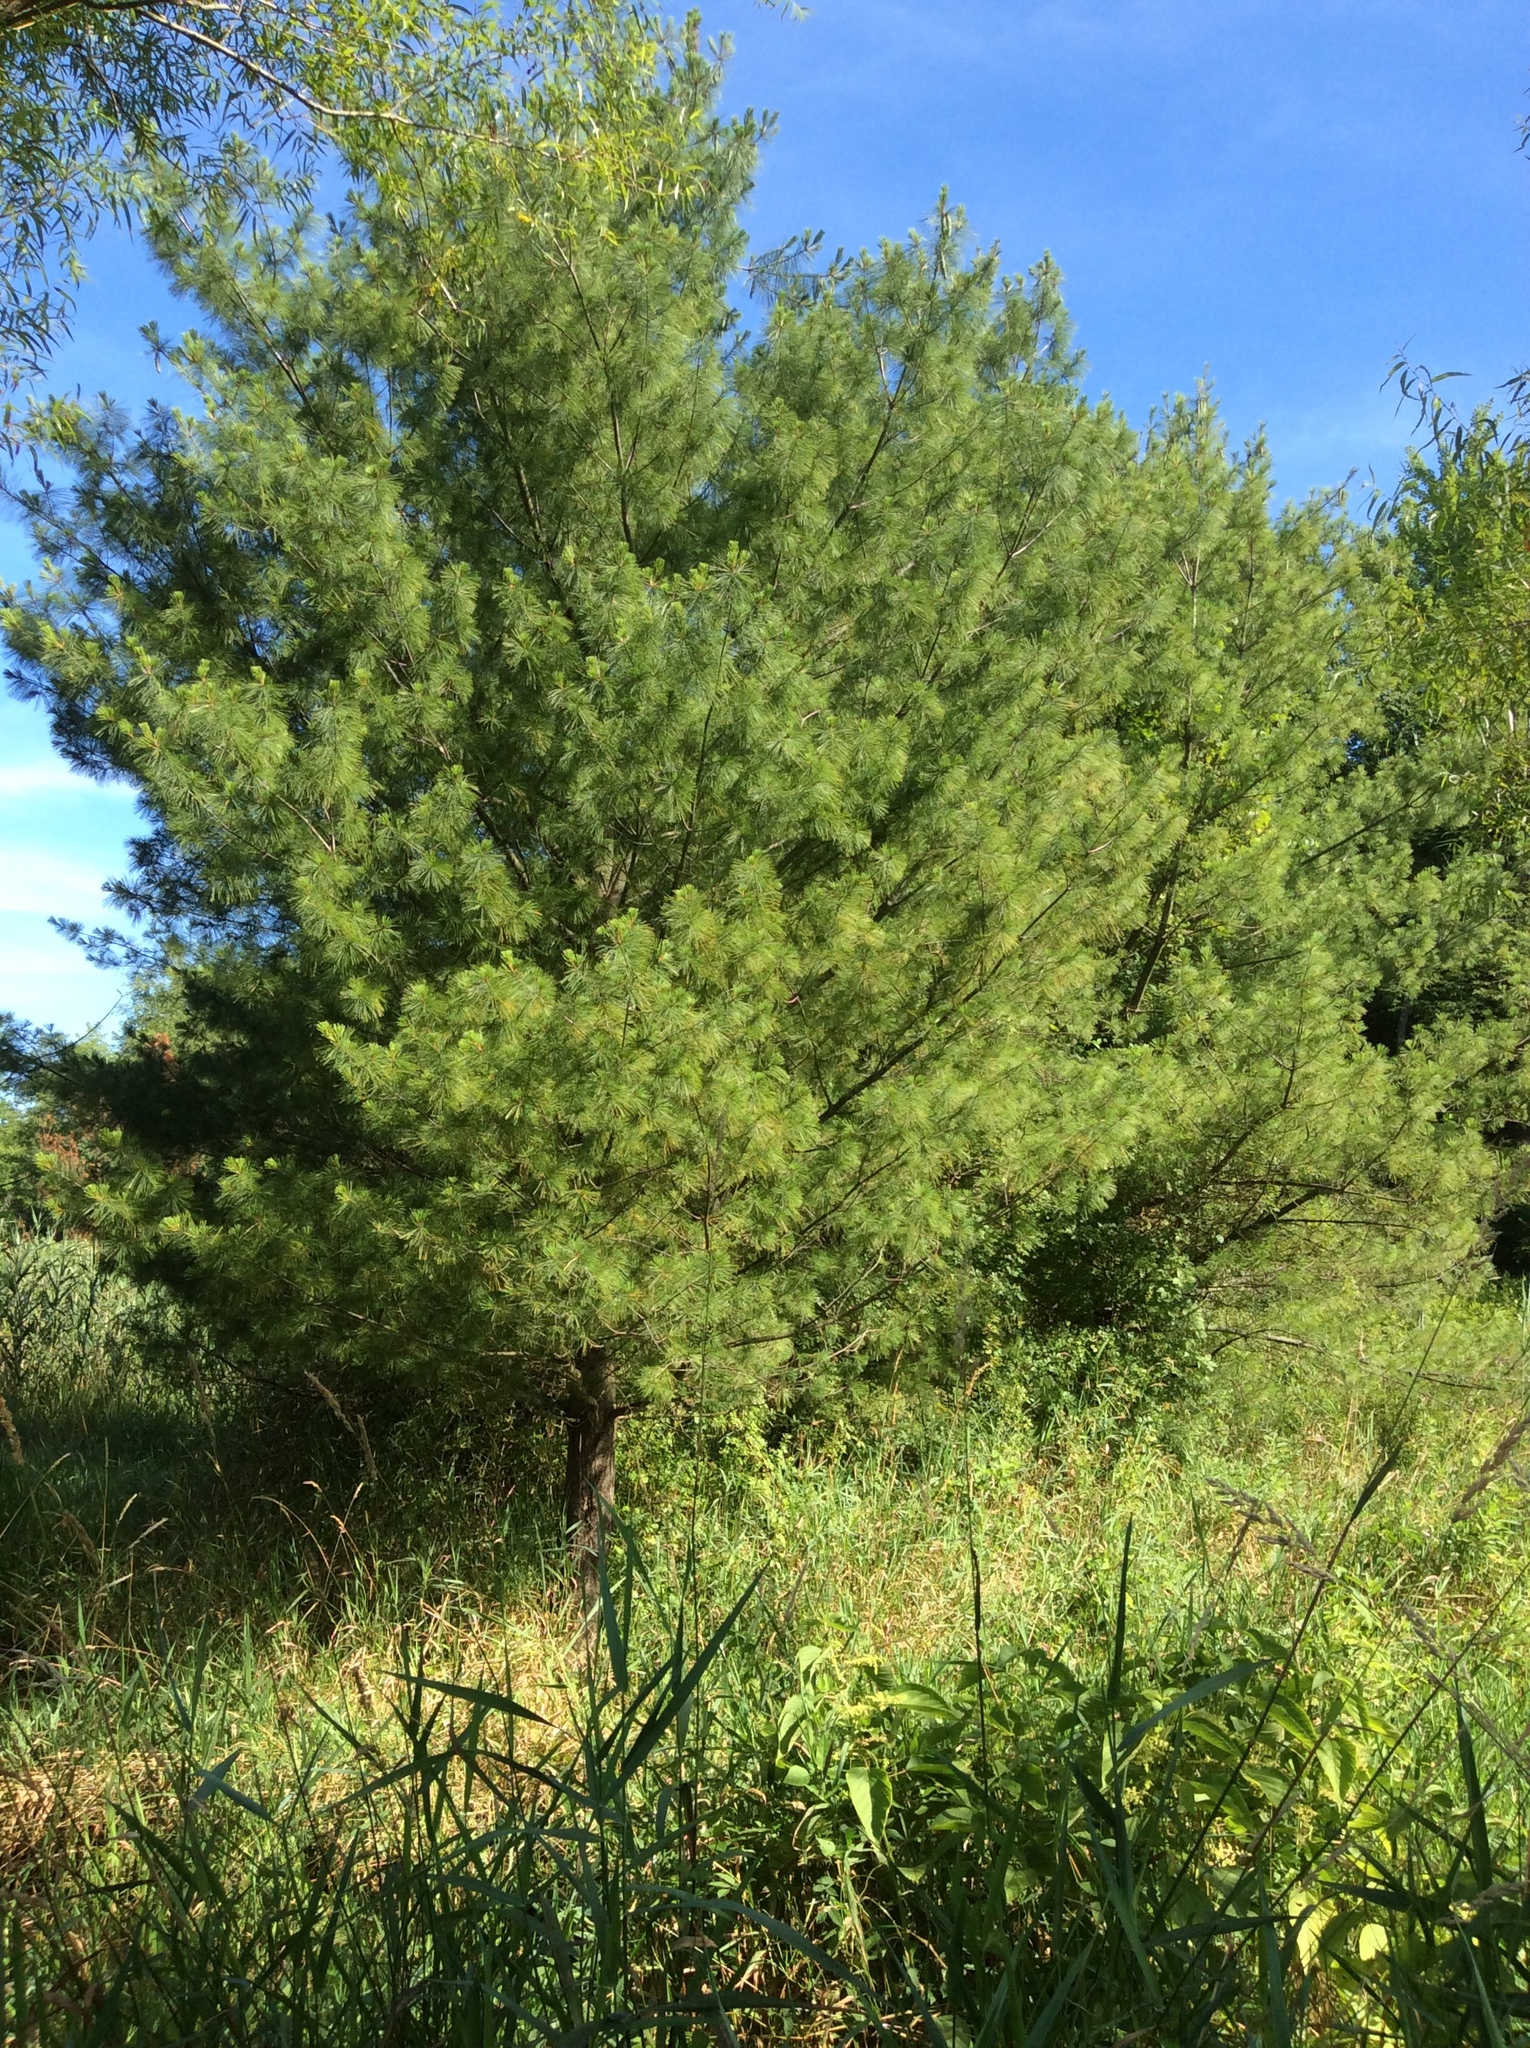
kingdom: Plantae
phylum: Tracheophyta
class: Pinopsida
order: Pinales
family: Pinaceae
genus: Pinus
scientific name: Pinus strobus
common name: Weymouth pine
